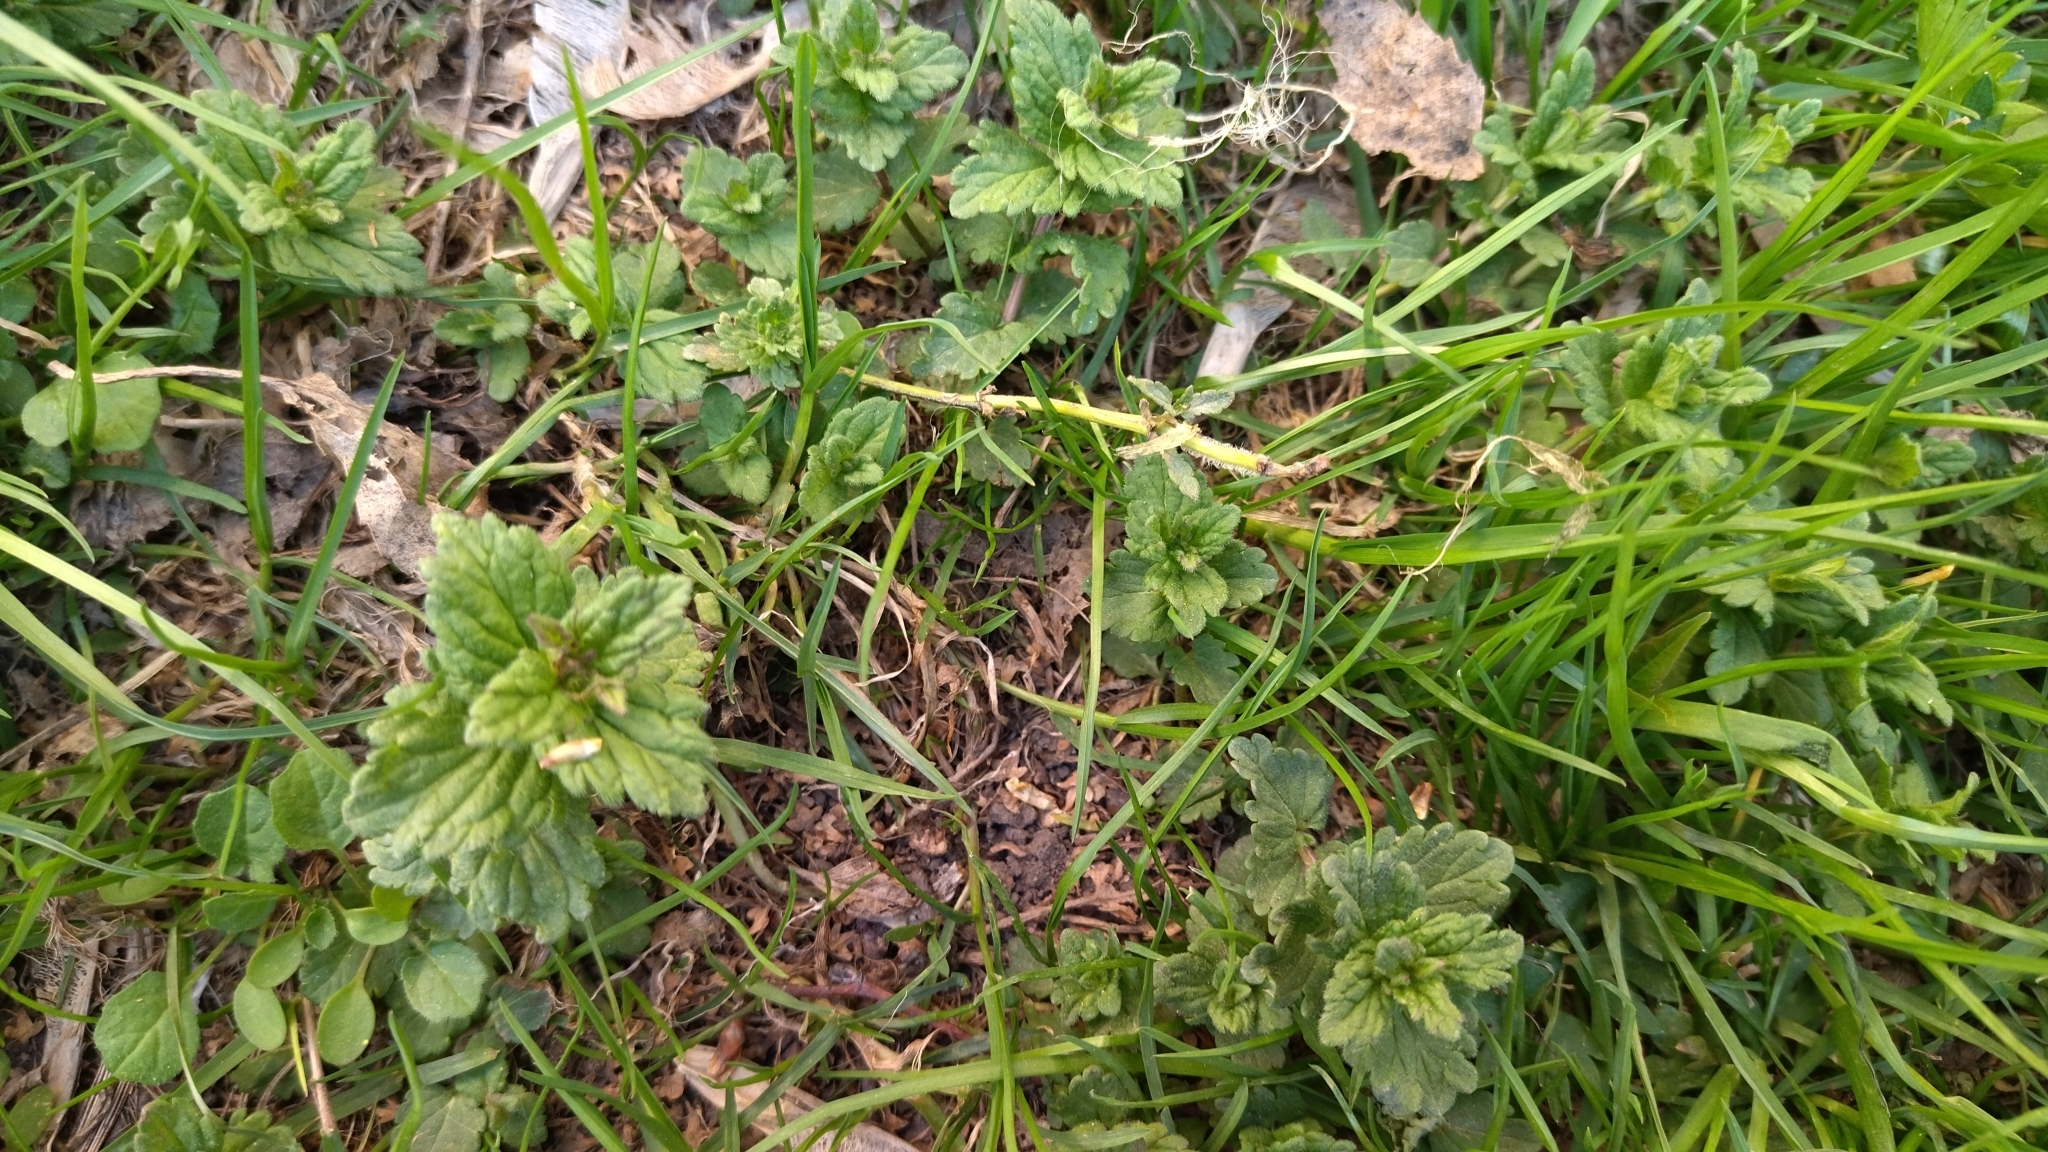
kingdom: Plantae
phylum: Tracheophyta
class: Magnoliopsida
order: Lamiales
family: Plantaginaceae
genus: Veronica
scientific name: Veronica chamaedrys
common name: Germander speedwell
